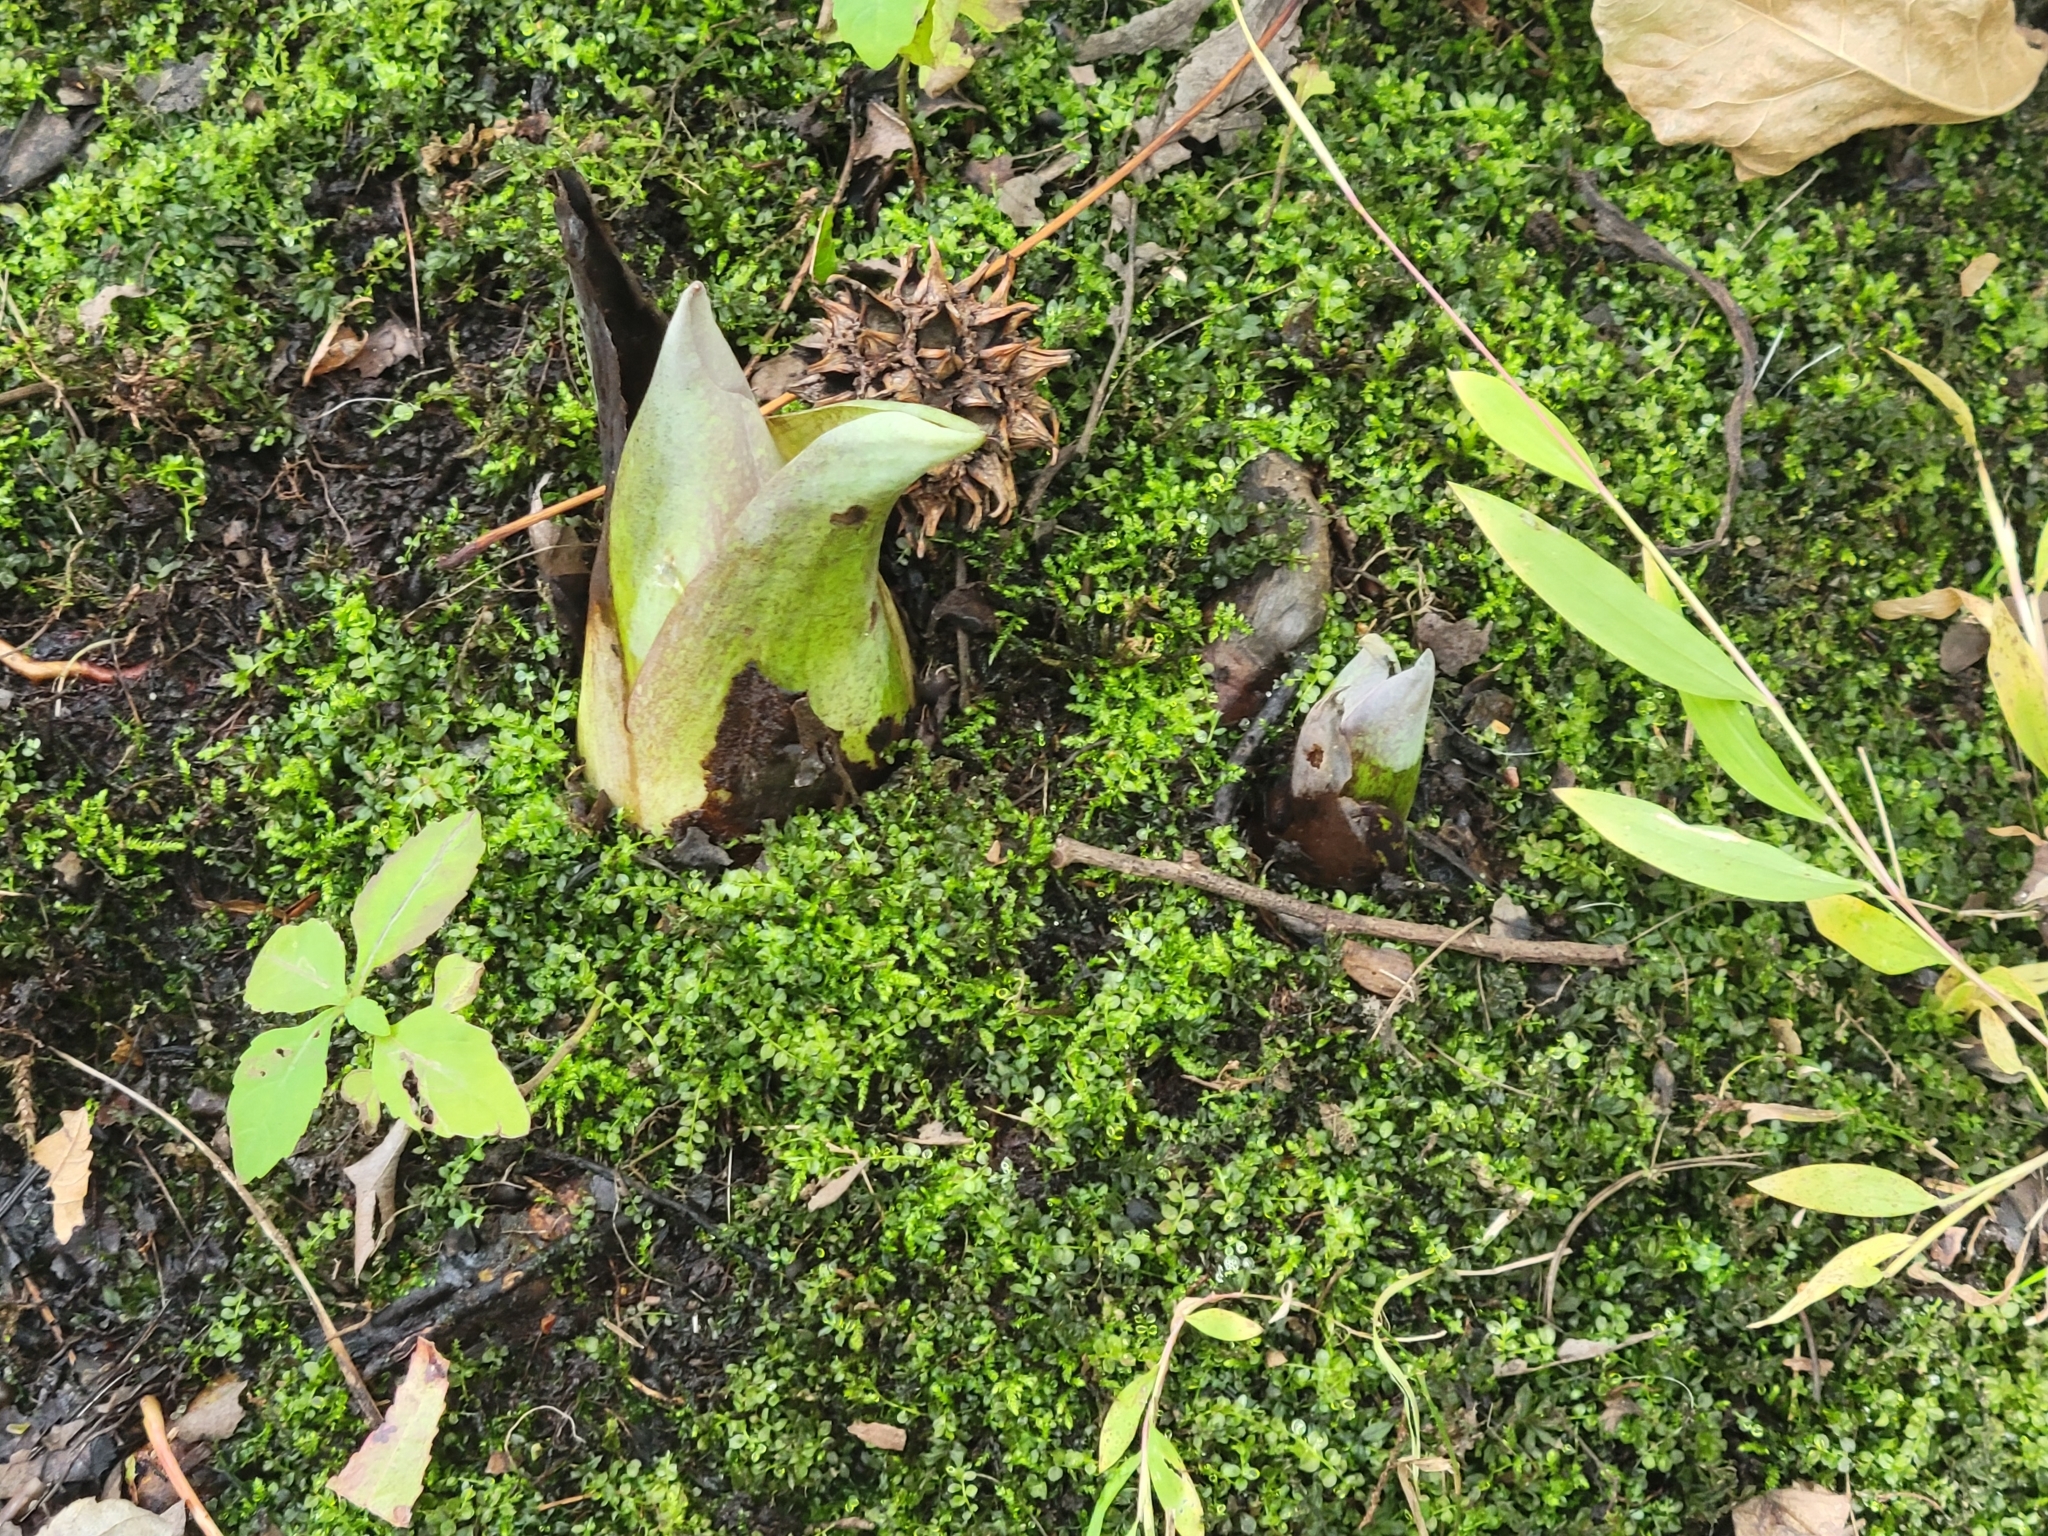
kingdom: Plantae
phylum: Tracheophyta
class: Liliopsida
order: Alismatales
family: Araceae
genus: Symplocarpus
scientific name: Symplocarpus foetidus
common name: Eastern skunk cabbage
